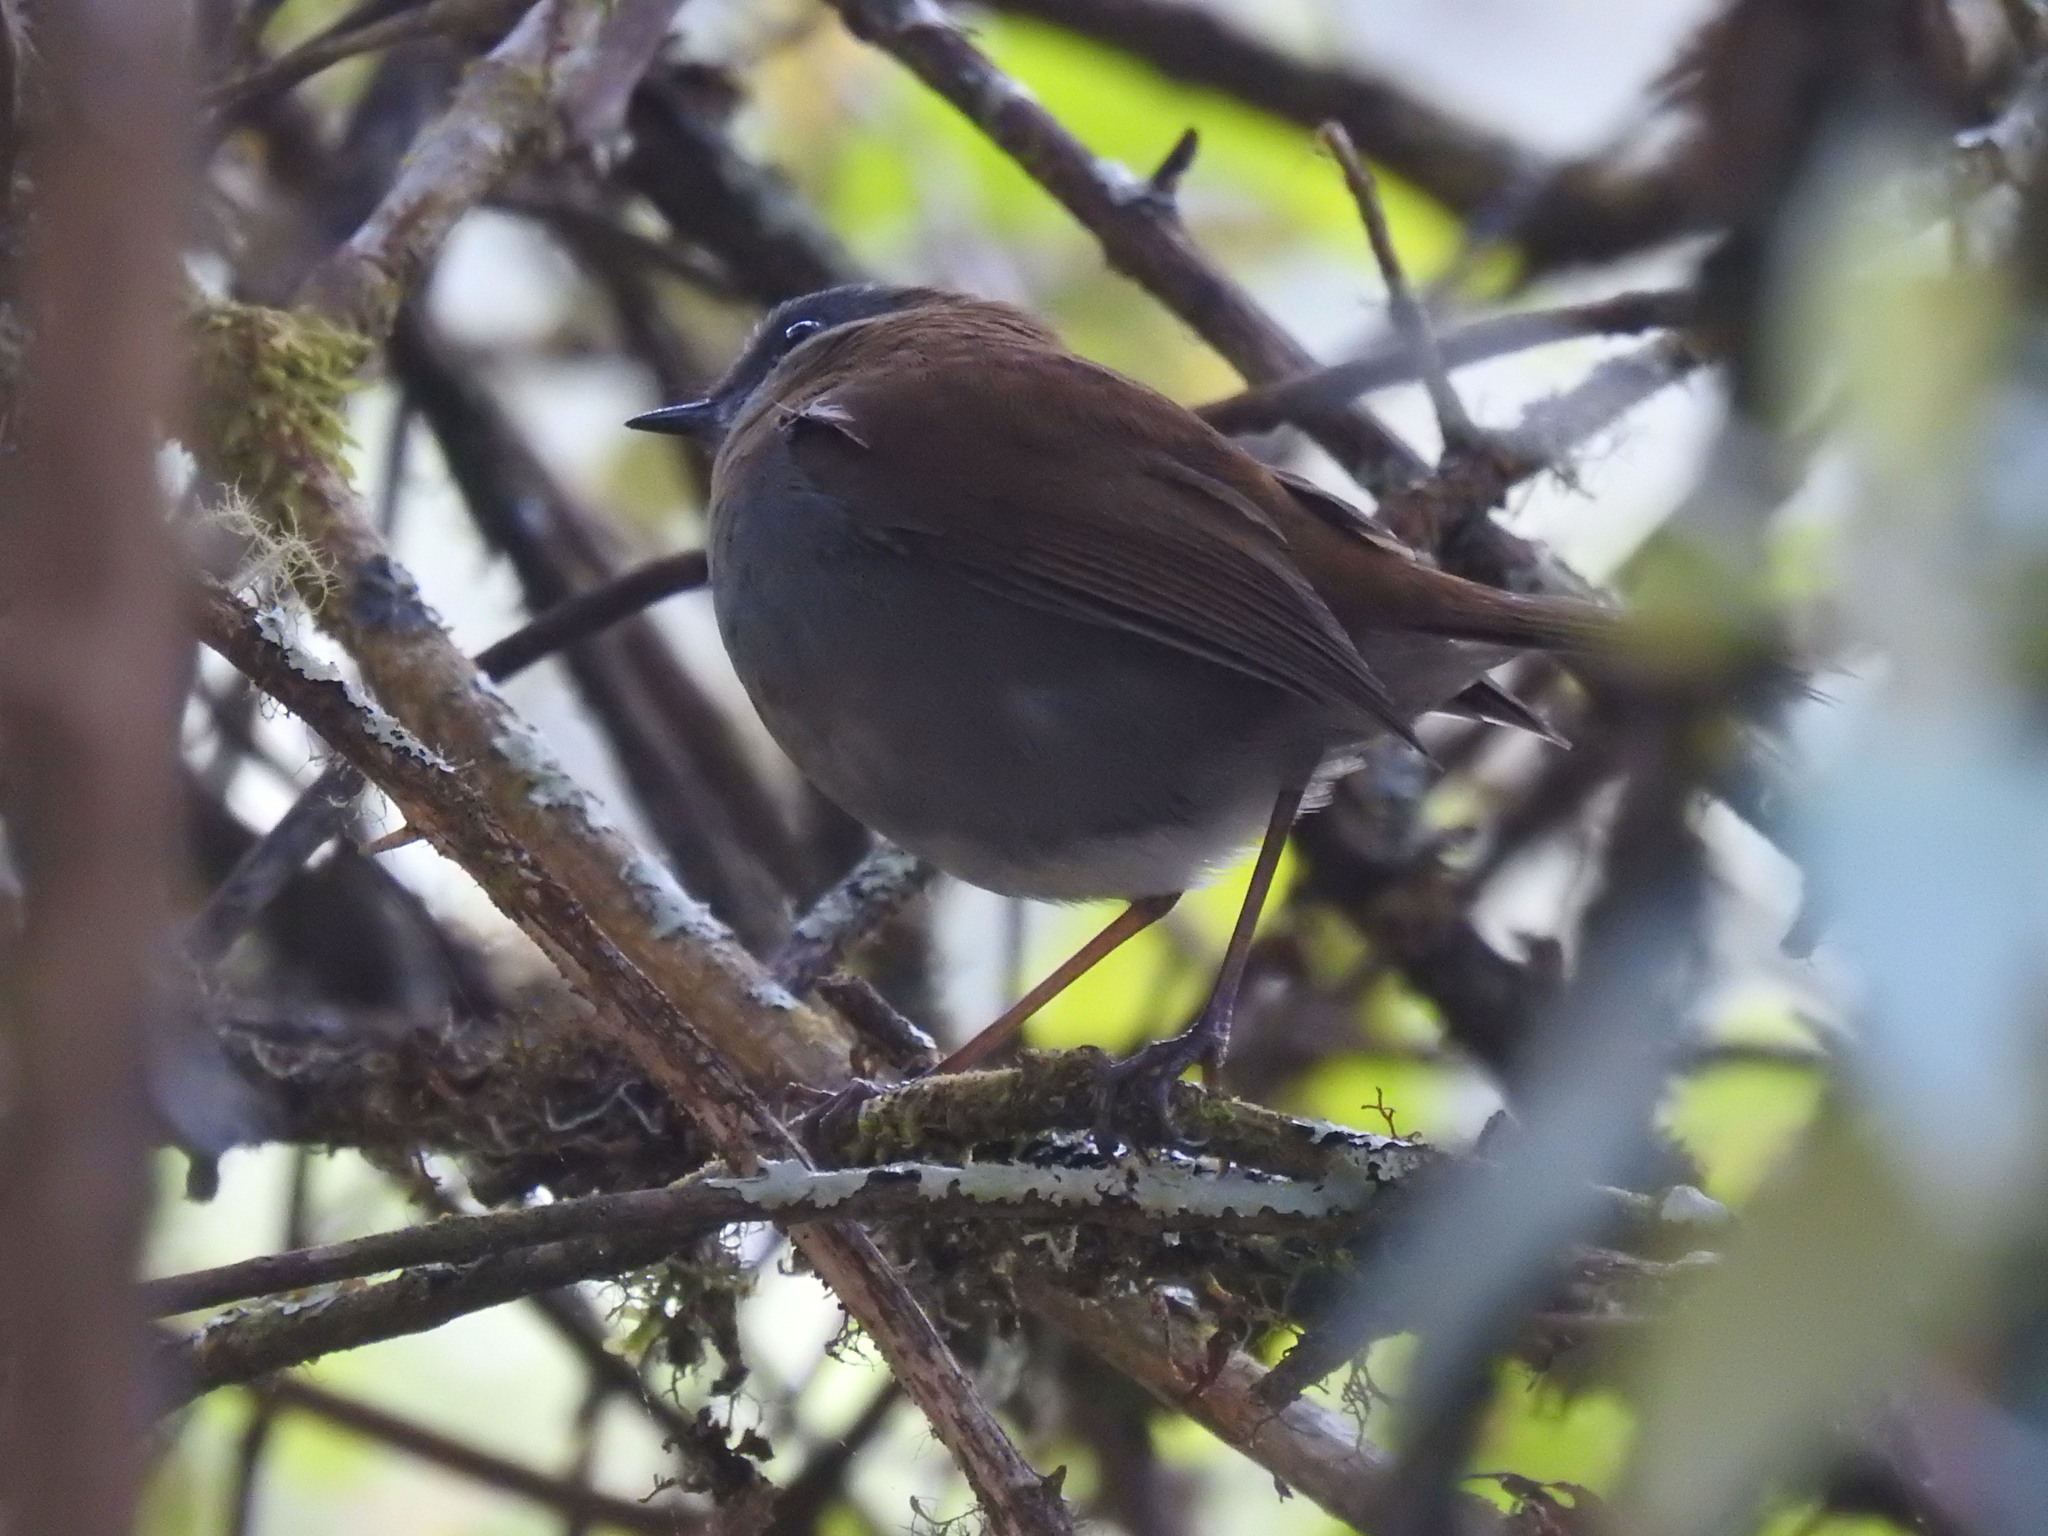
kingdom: Animalia
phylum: Chordata
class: Aves
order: Passeriformes
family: Turdidae
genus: Catharus
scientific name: Catharus gracilirostris
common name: Black-billed nightingale-thrush
